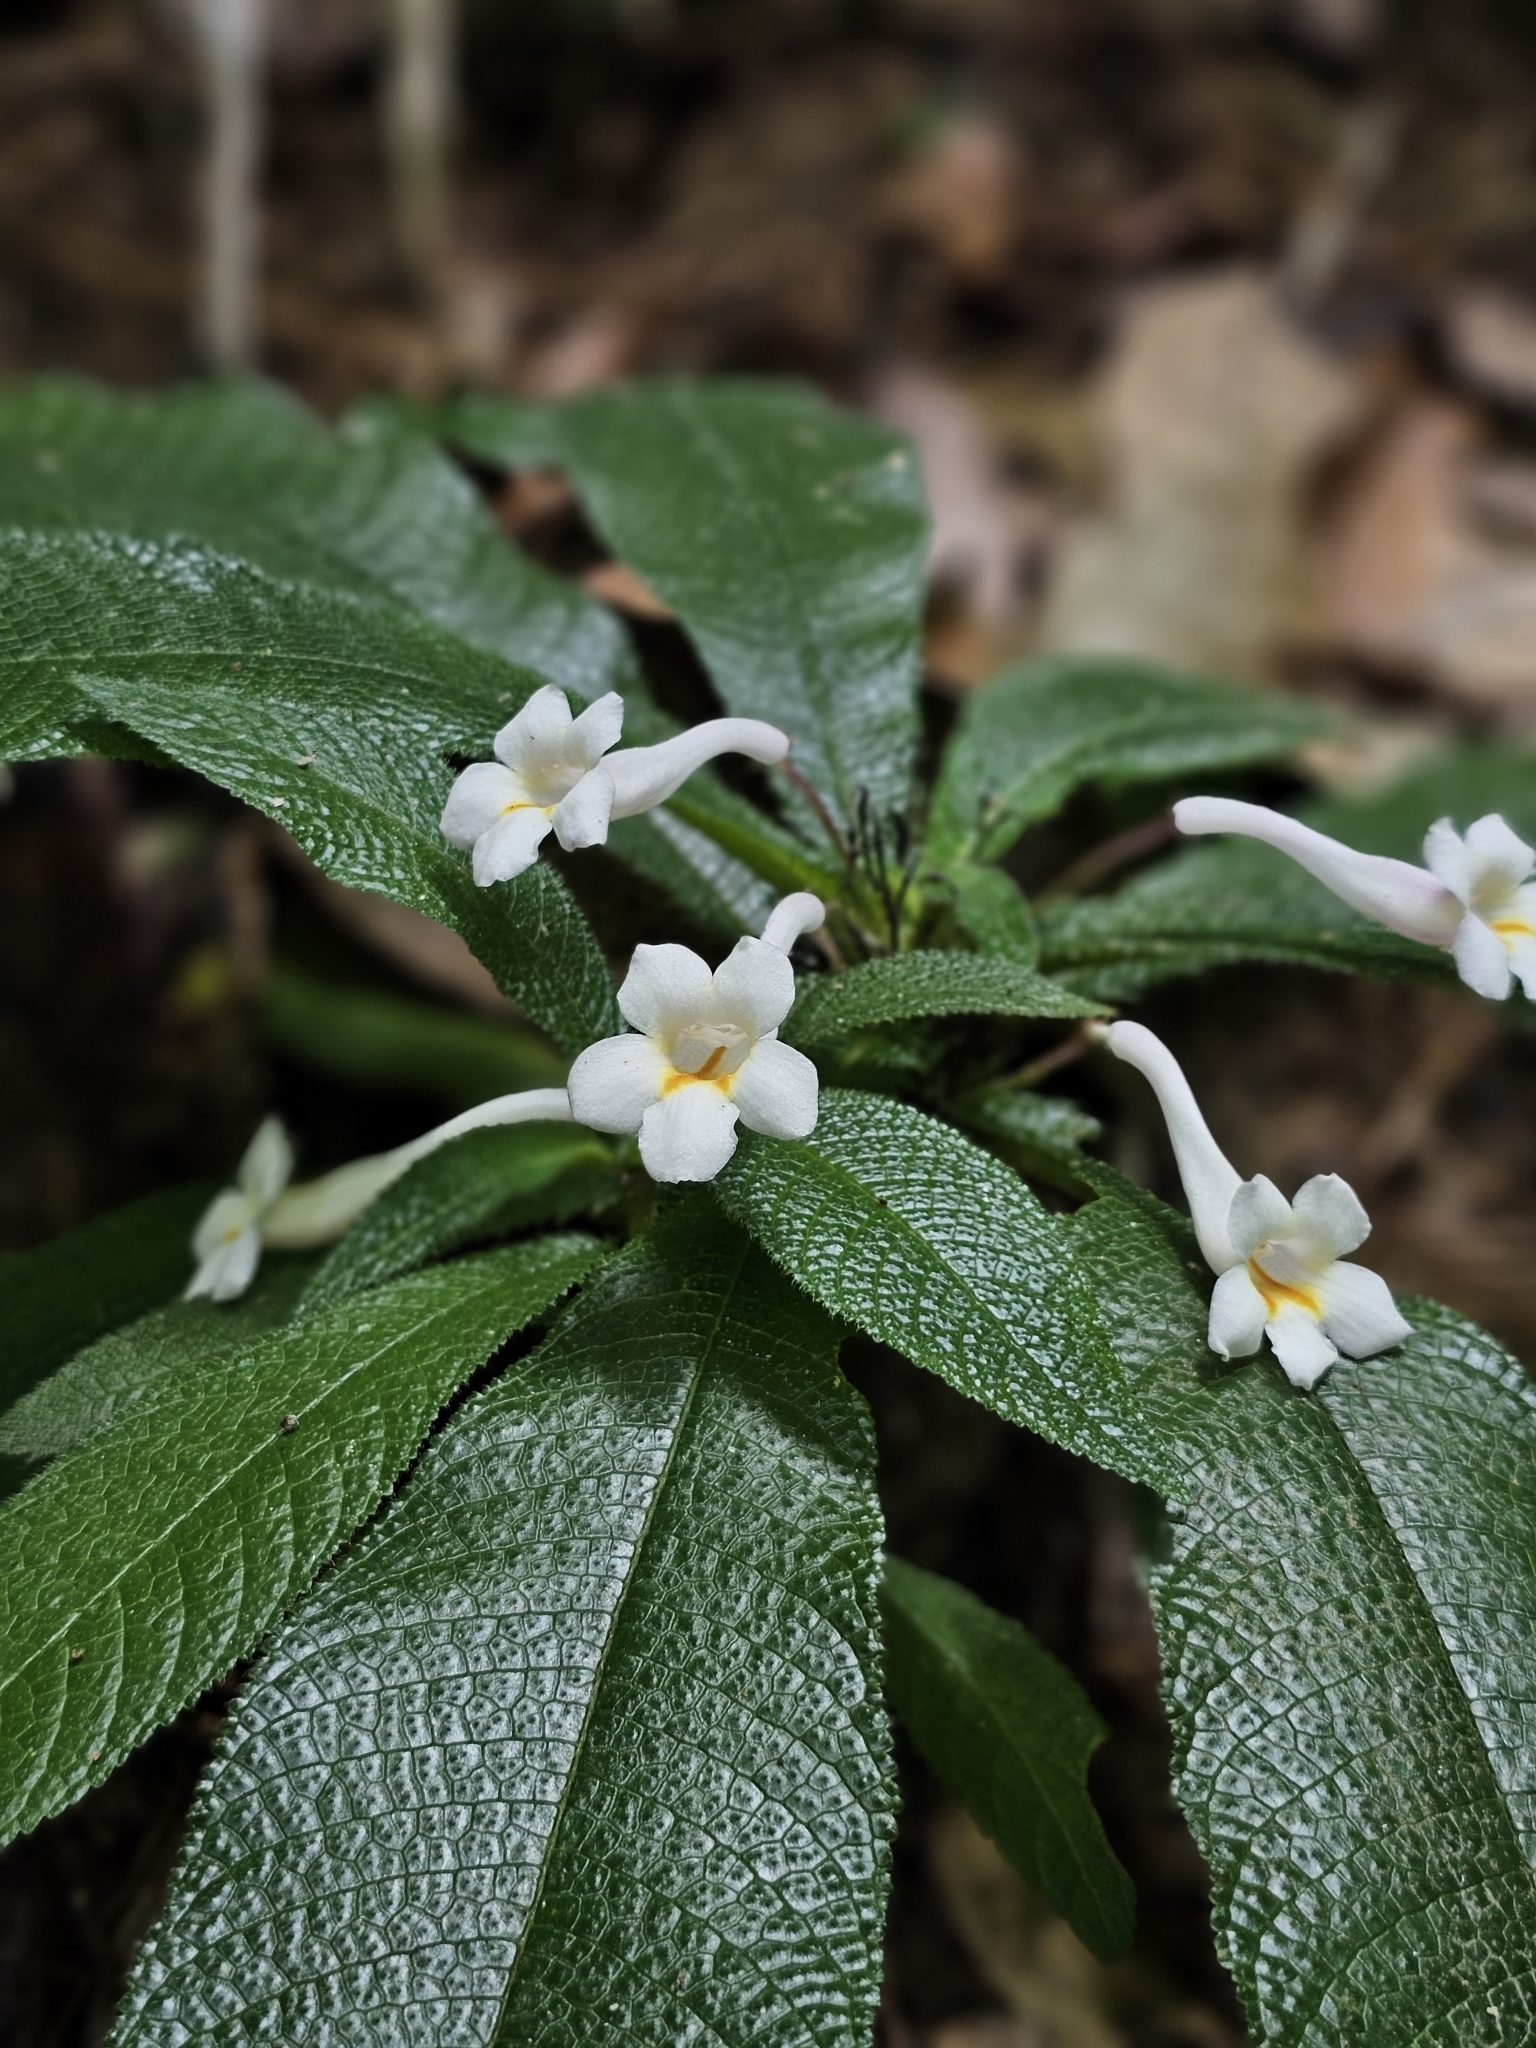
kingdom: Plantae
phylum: Tracheophyta
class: Magnoliopsida
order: Lamiales
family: Gesneriaceae
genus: Codonoboea
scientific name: Codonoboea platypus
